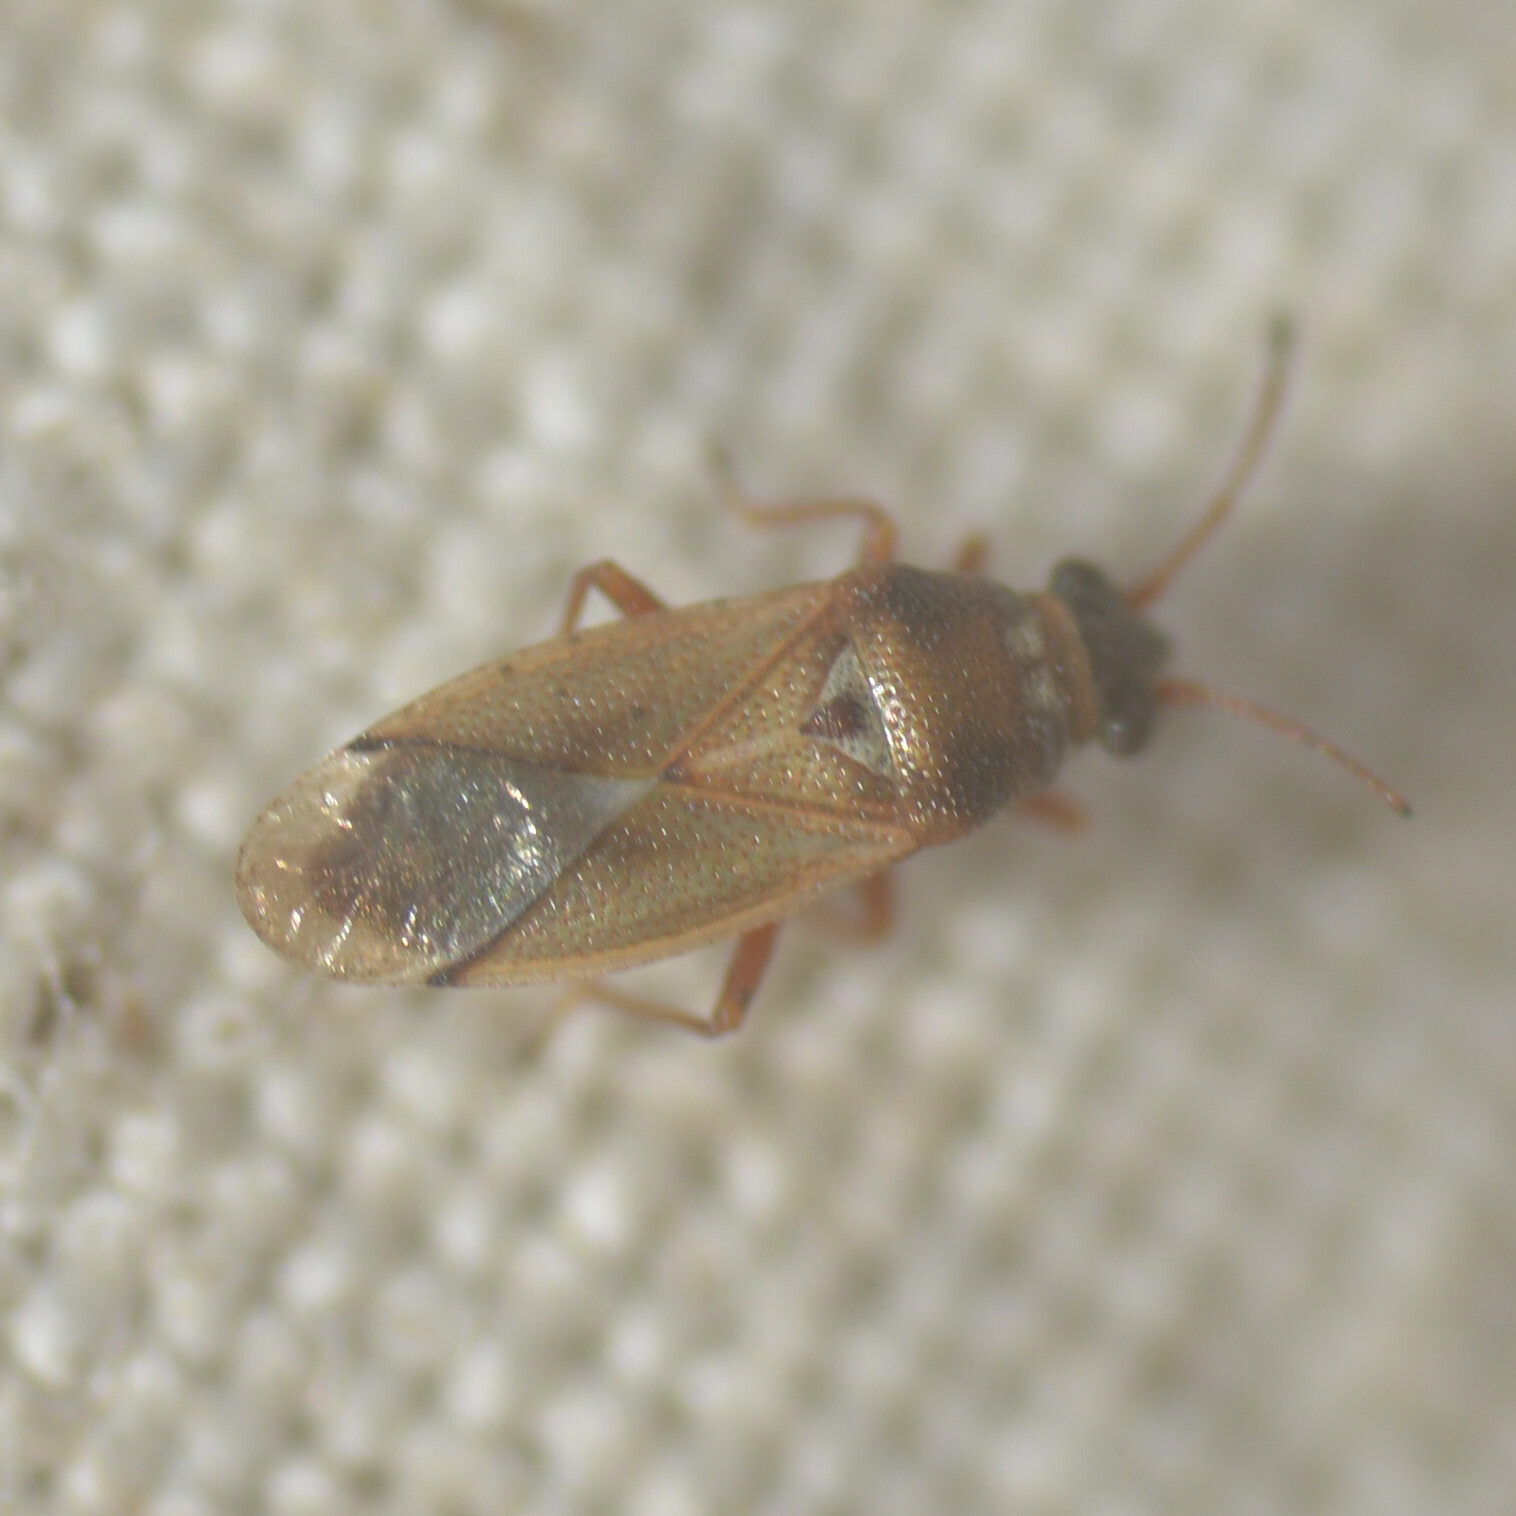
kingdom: Animalia
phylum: Arthropoda
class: Insecta
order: Hemiptera
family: Cymidae
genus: Cymus
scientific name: Cymus melanocephalus
